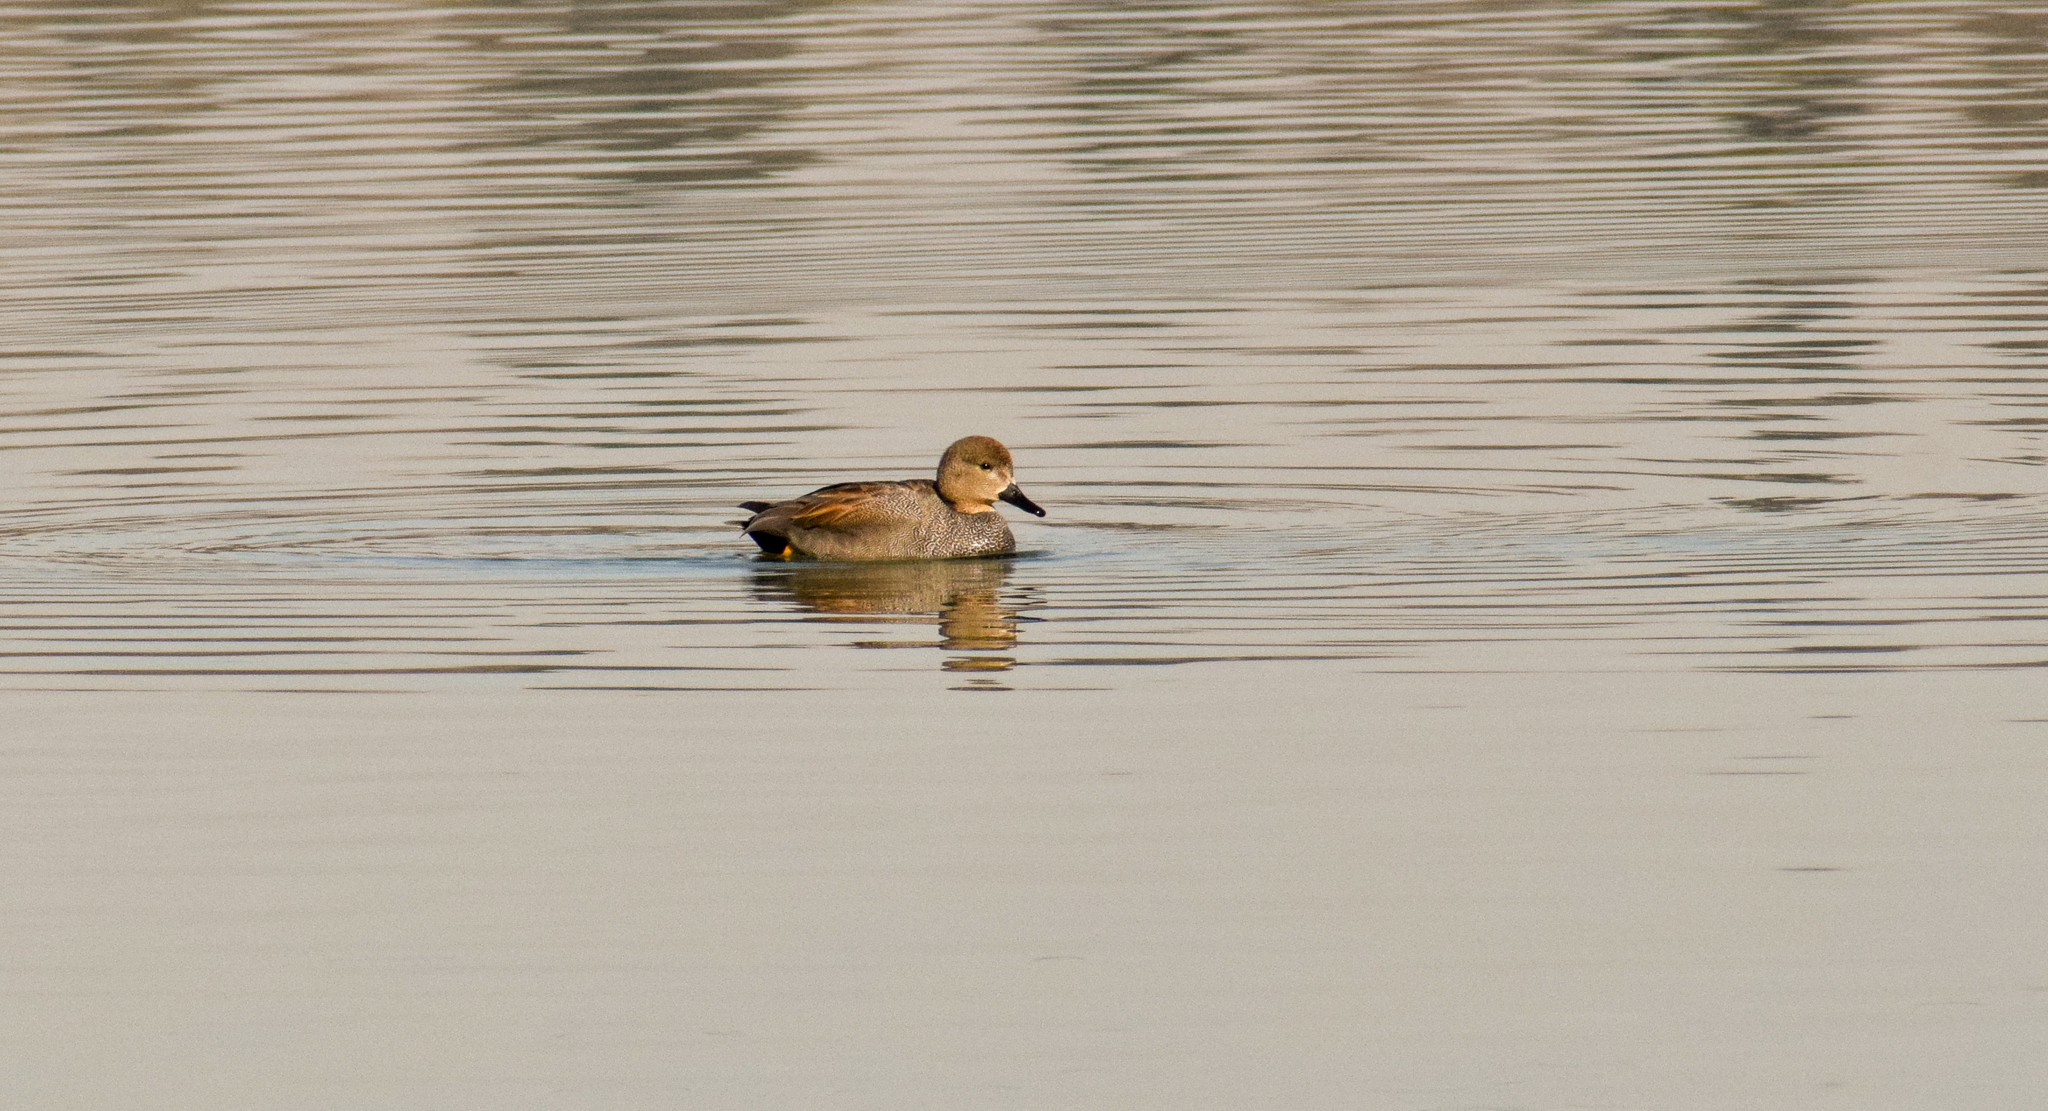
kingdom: Animalia
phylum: Chordata
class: Aves
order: Anseriformes
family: Anatidae
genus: Mareca
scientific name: Mareca strepera
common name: Gadwall
